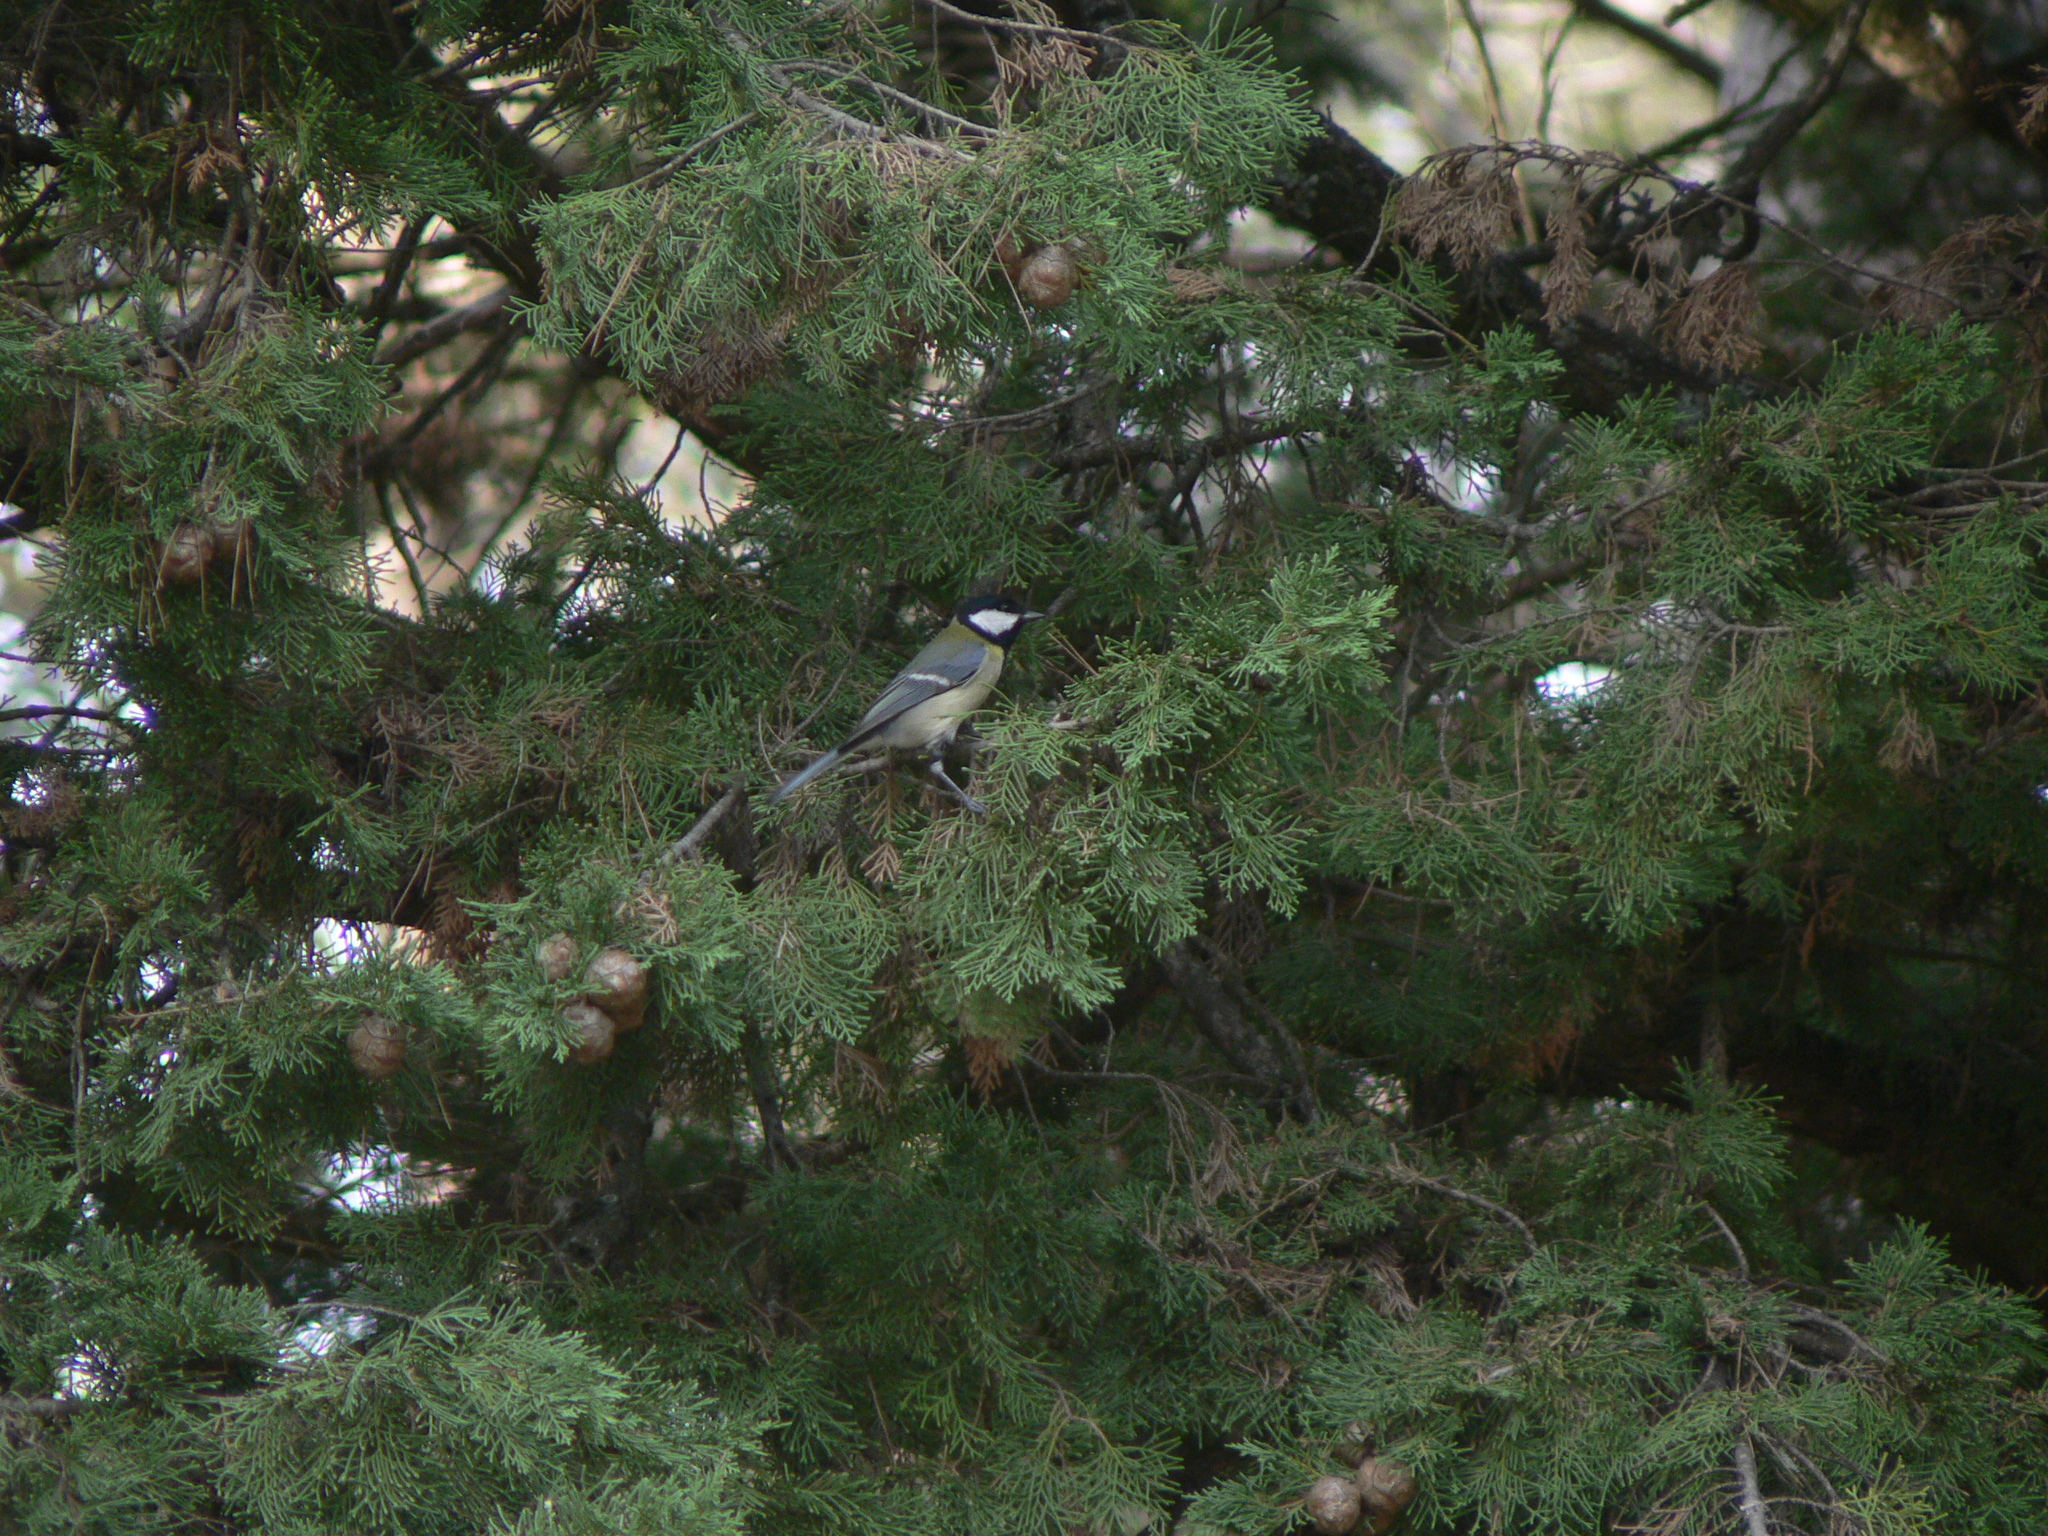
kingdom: Animalia
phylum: Chordata
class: Aves
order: Passeriformes
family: Paridae
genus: Parus
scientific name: Parus major
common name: Great tit
